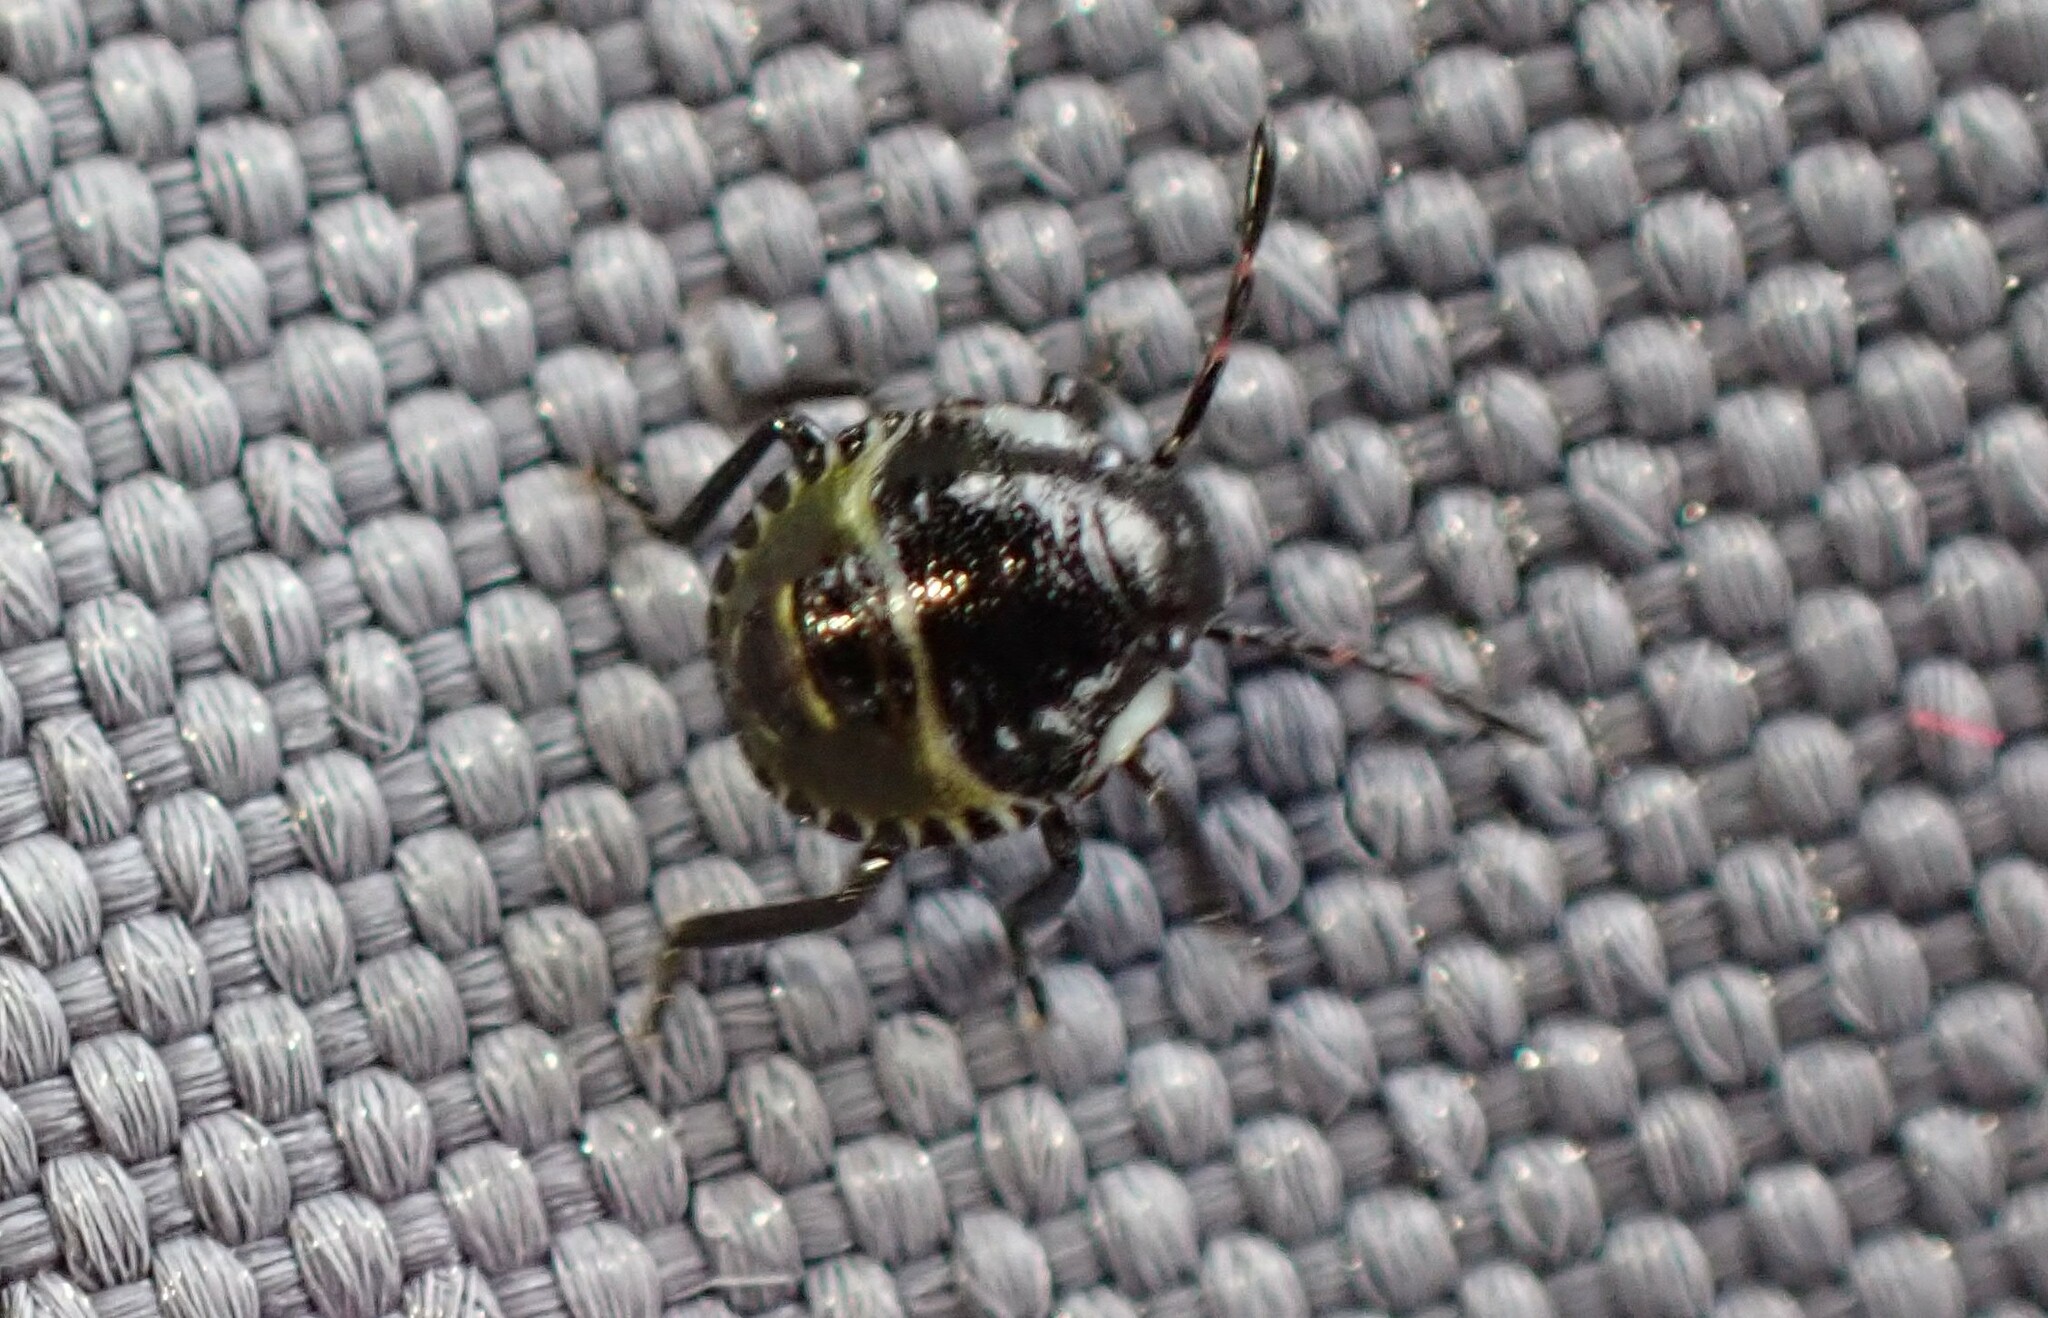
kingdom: Animalia
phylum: Arthropoda
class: Insecta
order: Hemiptera
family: Pentatomidae
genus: Palomena
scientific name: Palomena prasina
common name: Green shieldbug
